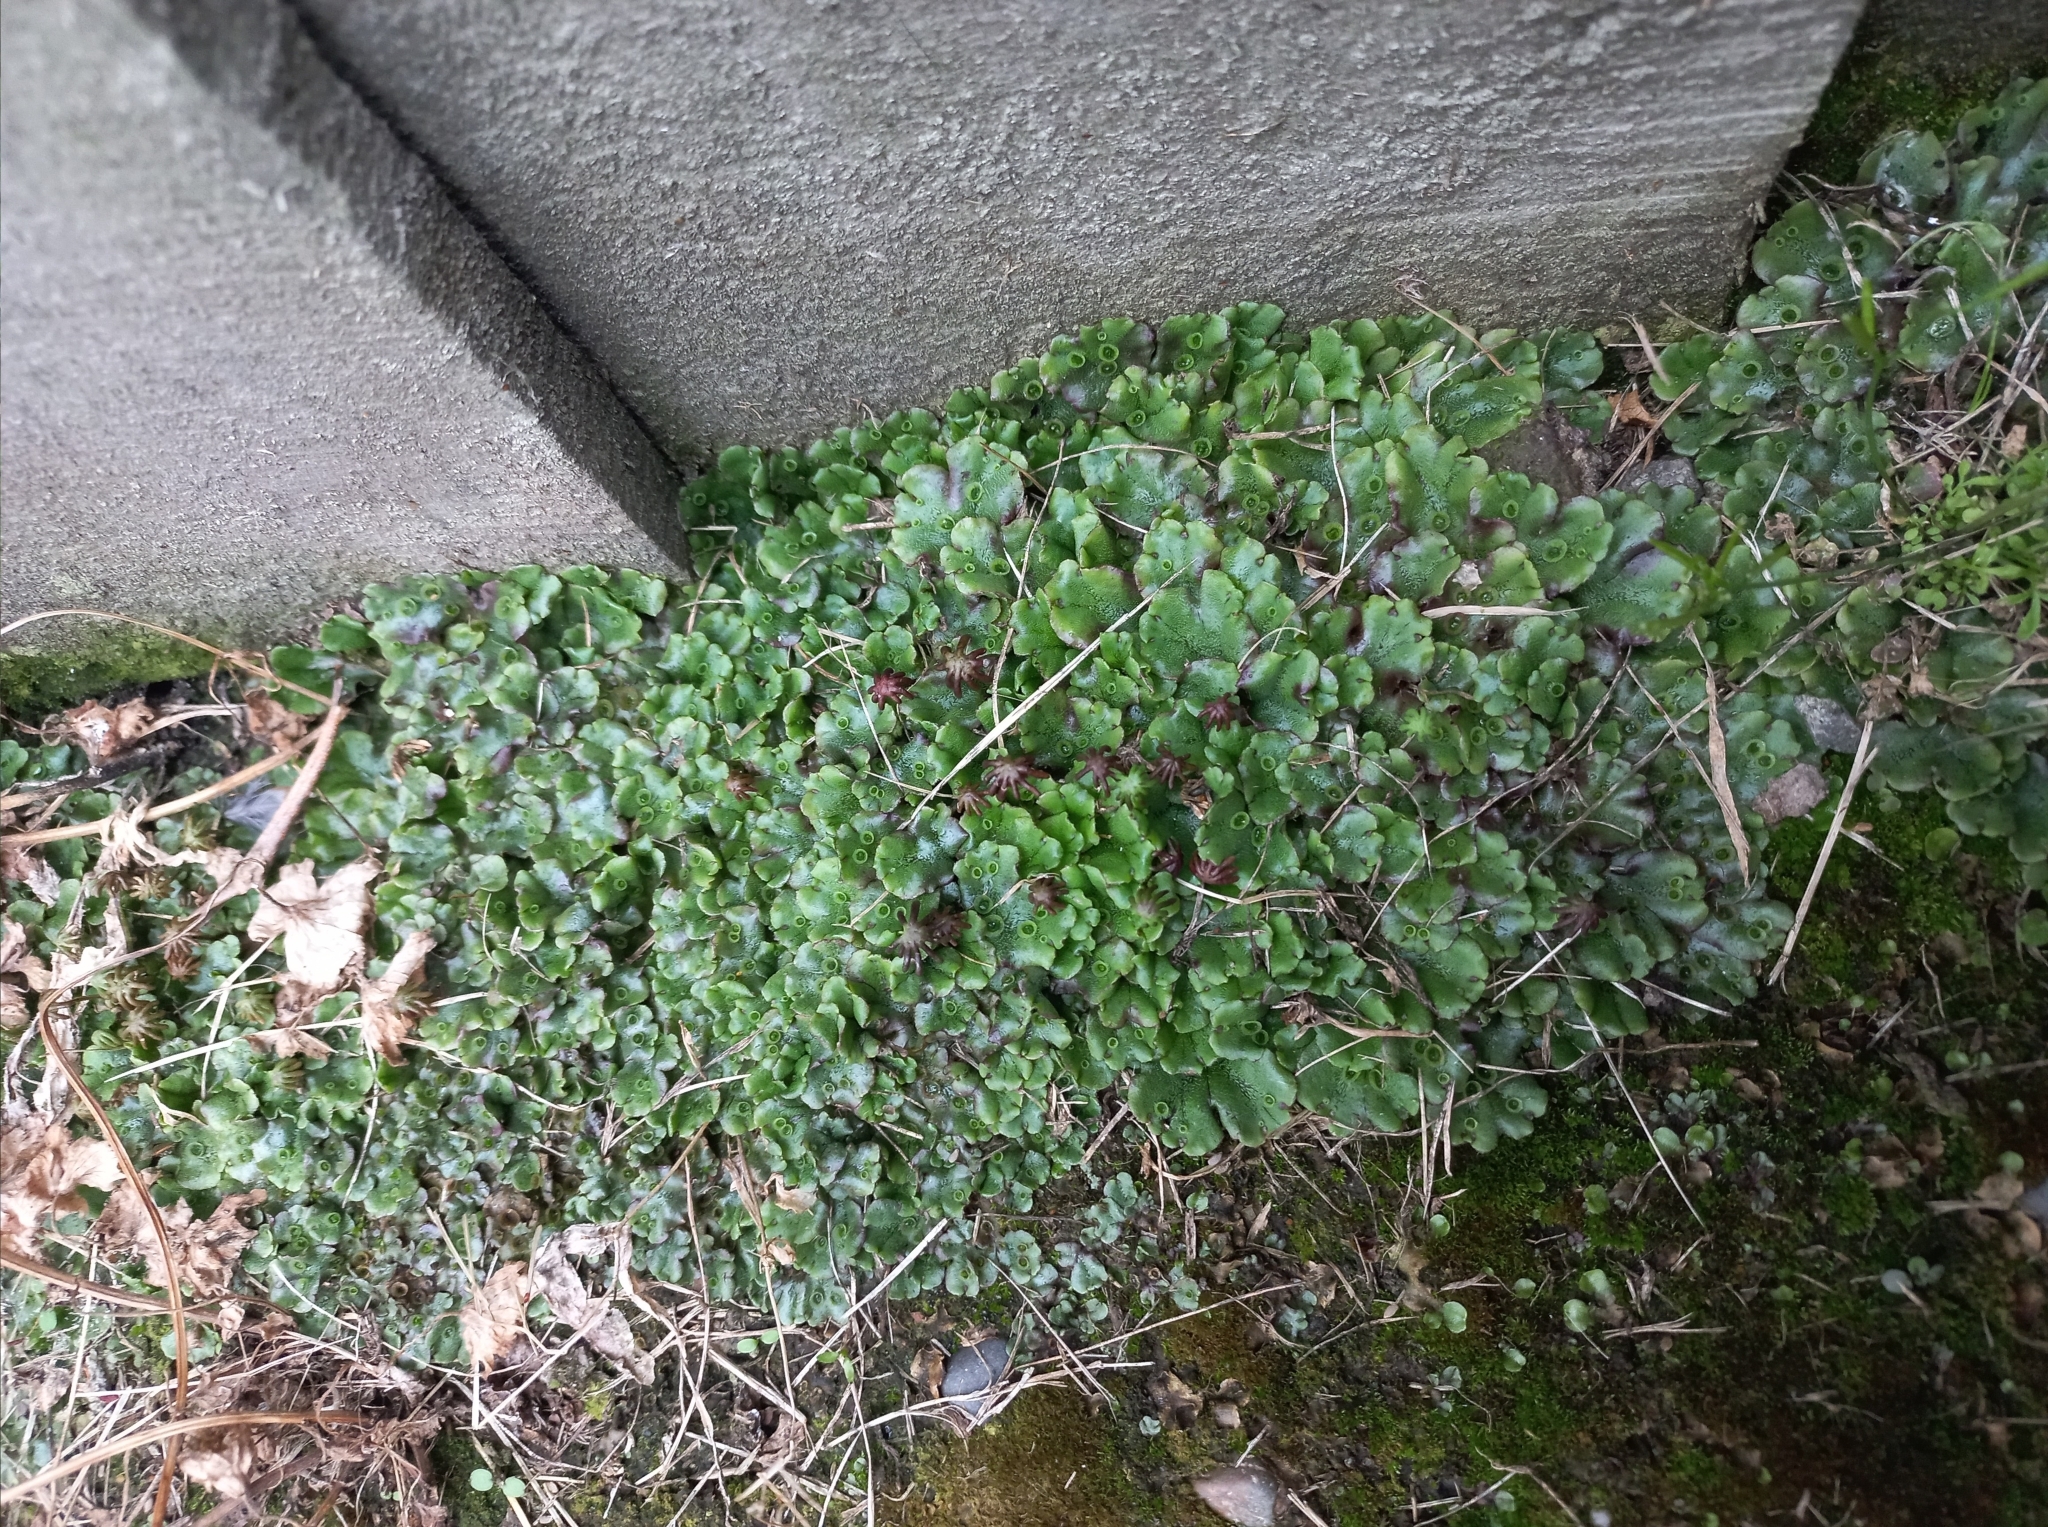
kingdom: Plantae
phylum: Marchantiophyta
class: Marchantiopsida
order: Marchantiales
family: Marchantiaceae
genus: Marchantia
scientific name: Marchantia polymorpha
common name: Common liverwort
